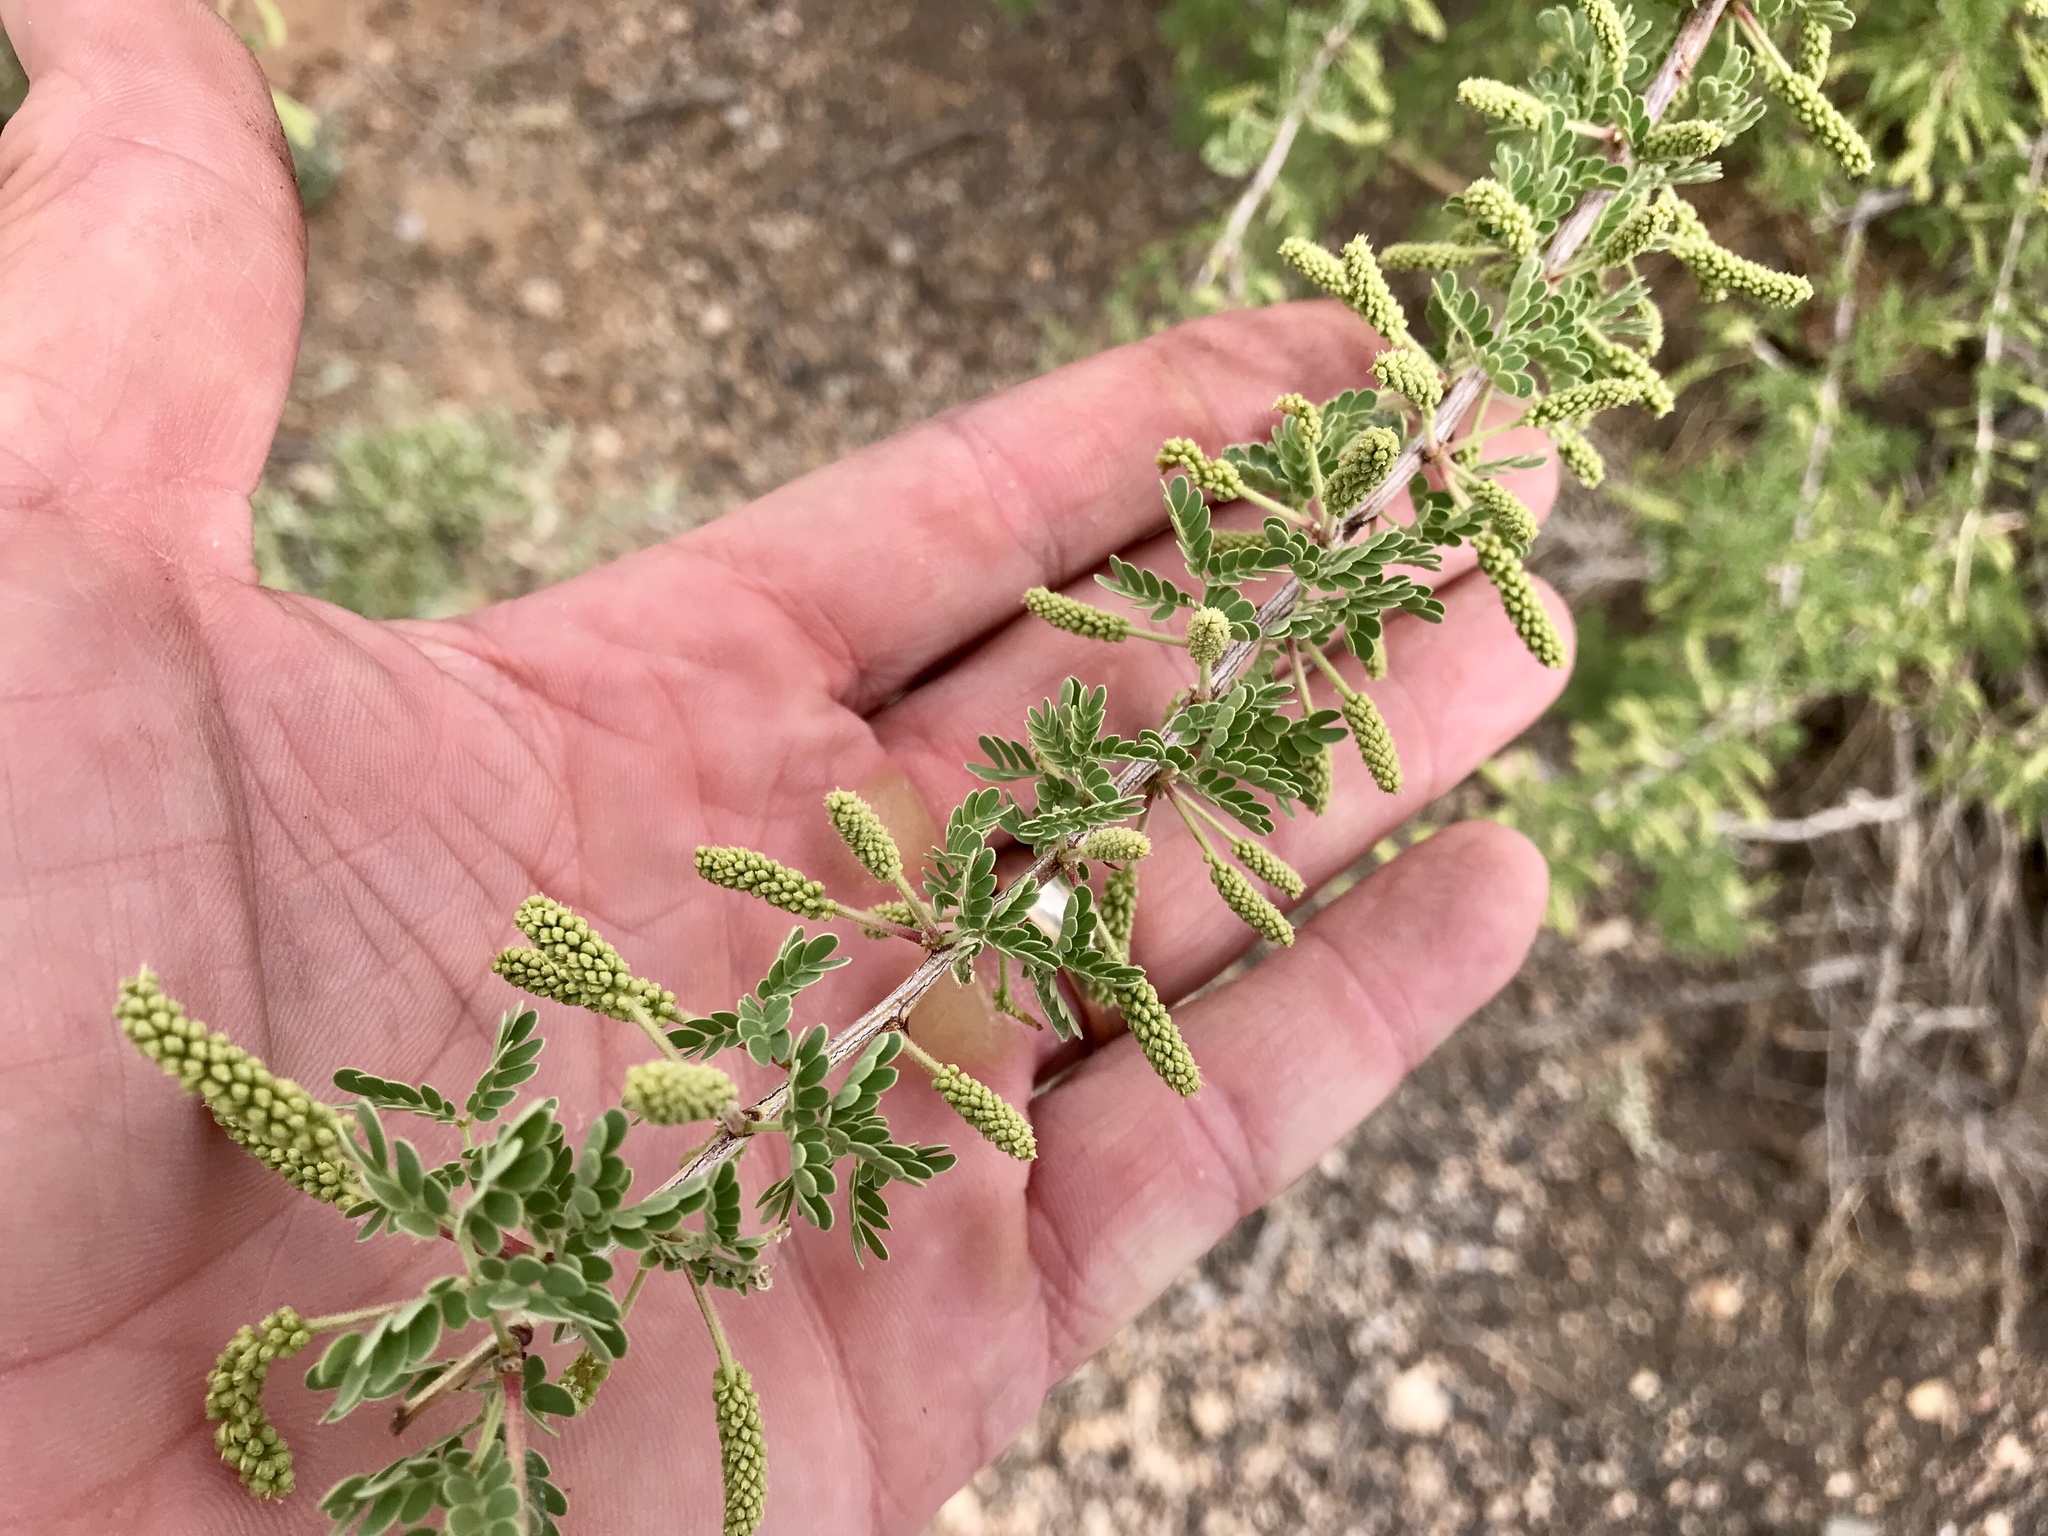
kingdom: Plantae
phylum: Tracheophyta
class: Magnoliopsida
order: Fabales
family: Fabaceae
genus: Senegalia
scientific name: Senegalia greggii
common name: Texas-mimosa
